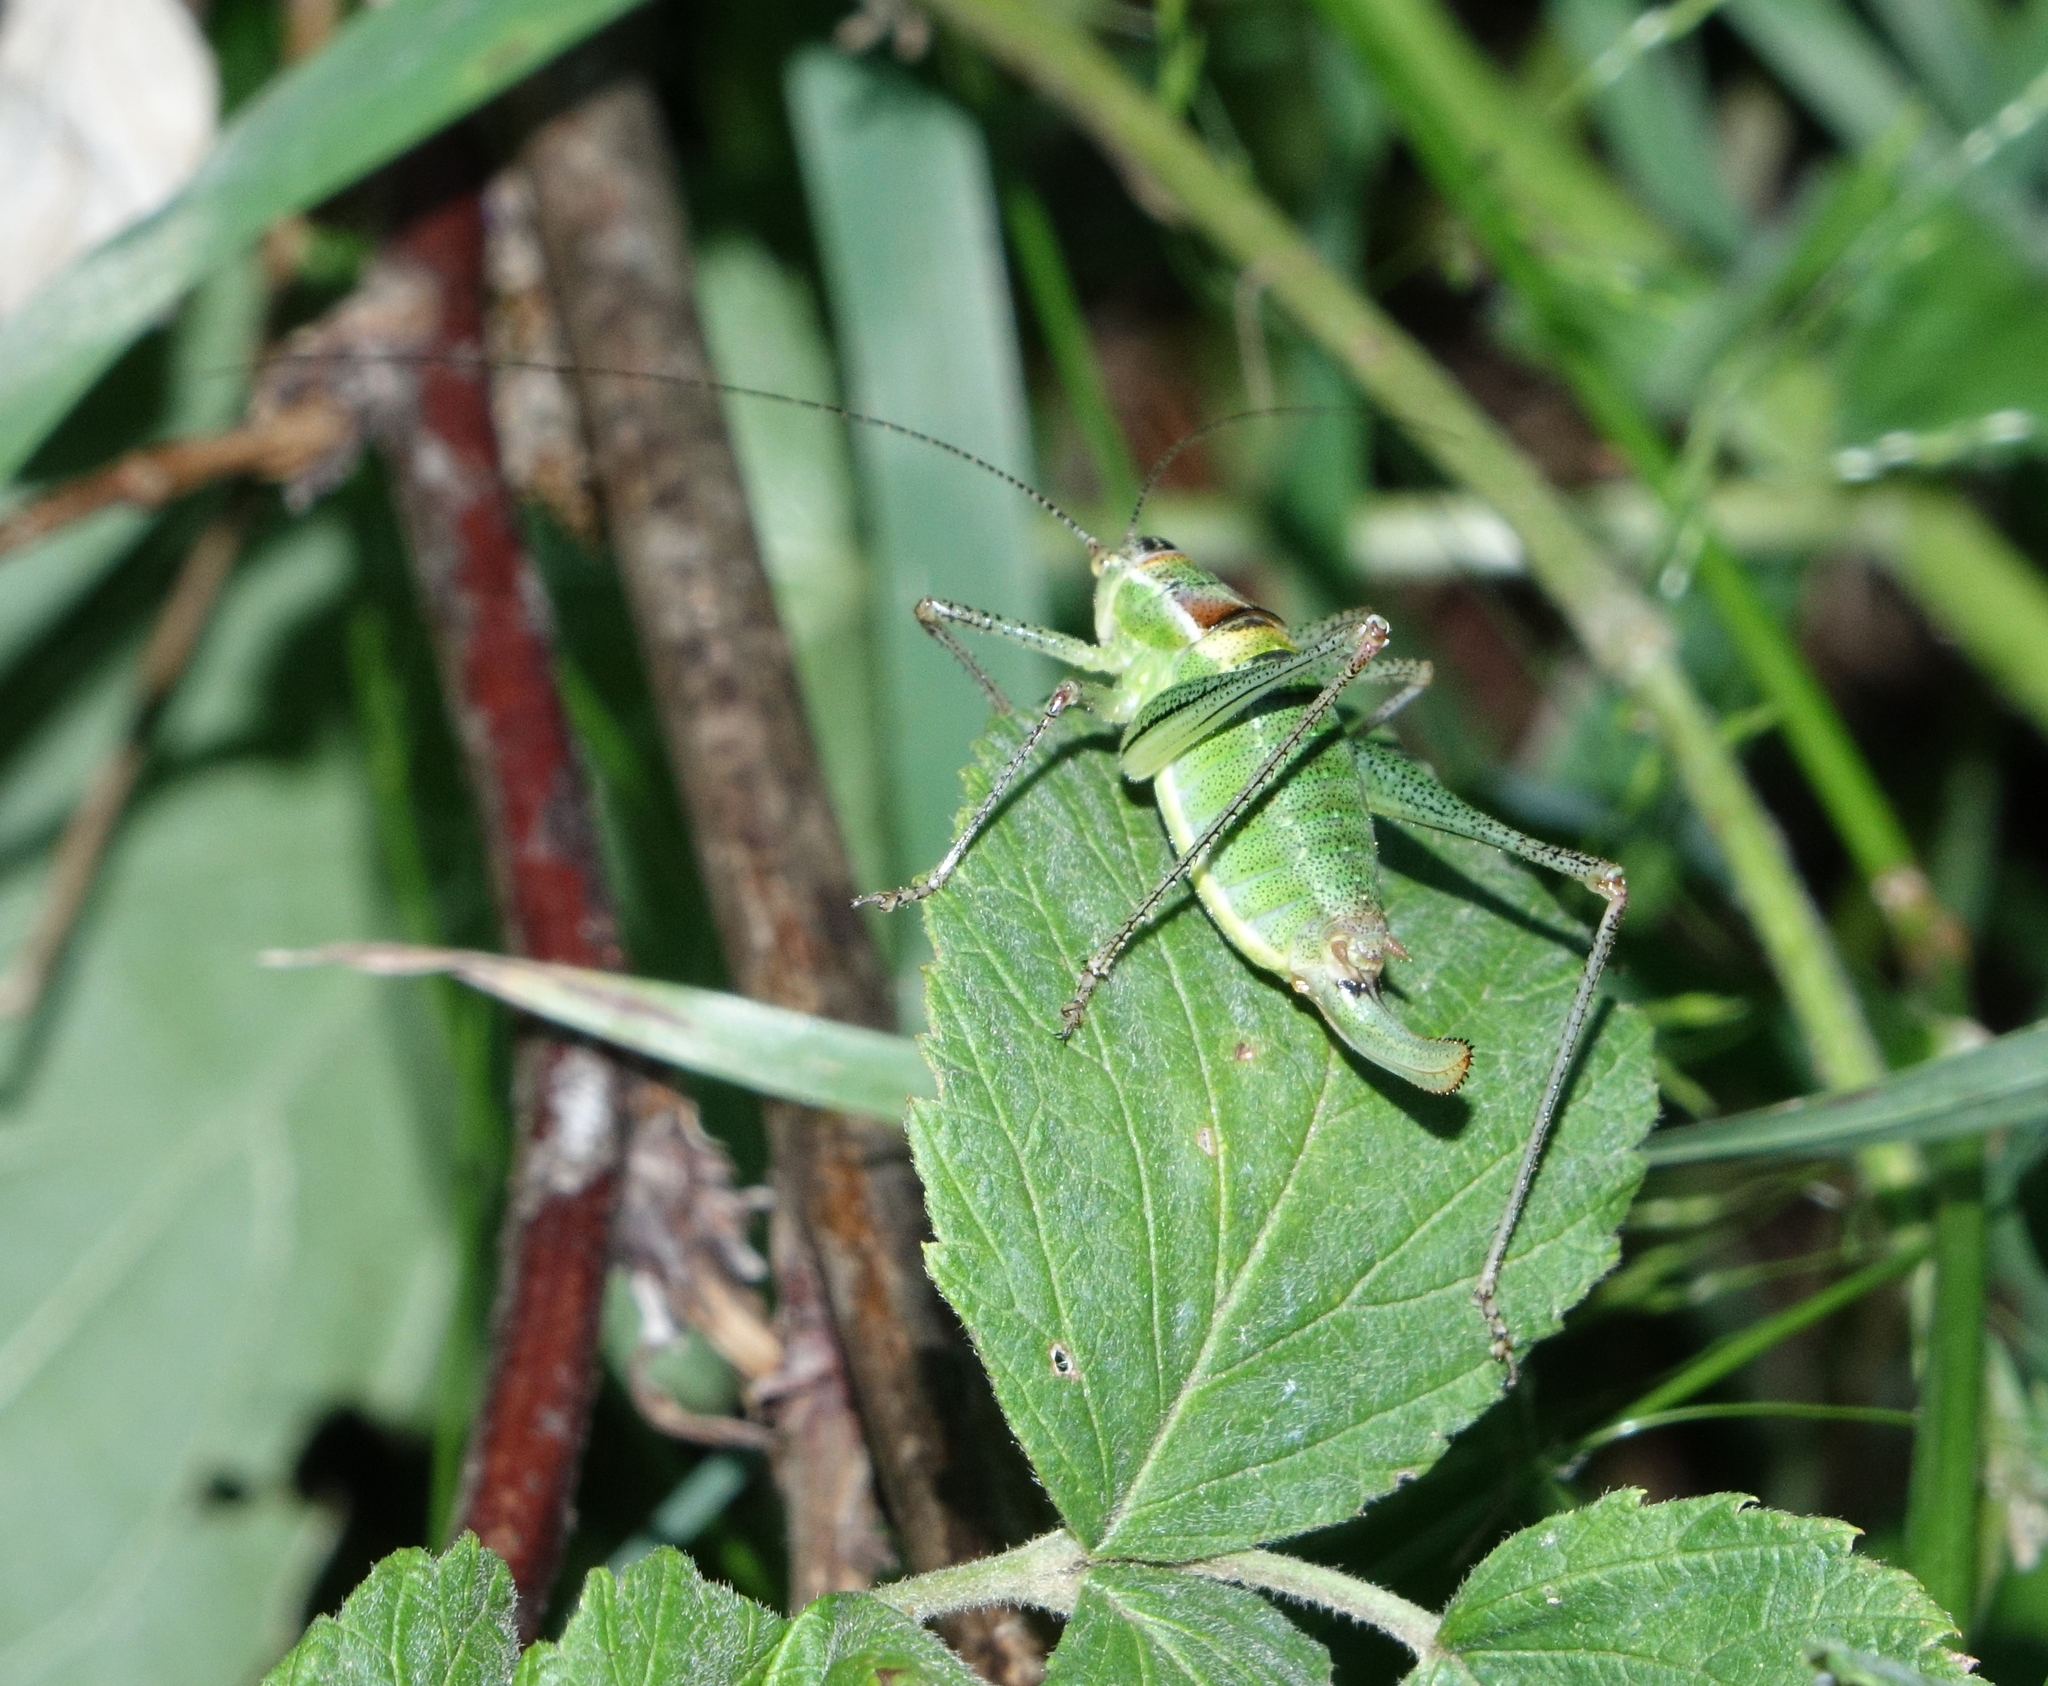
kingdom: Animalia
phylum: Arthropoda
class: Insecta
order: Orthoptera
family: Tettigoniidae
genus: Poecilimon
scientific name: Poecilimon geoktschajcus
